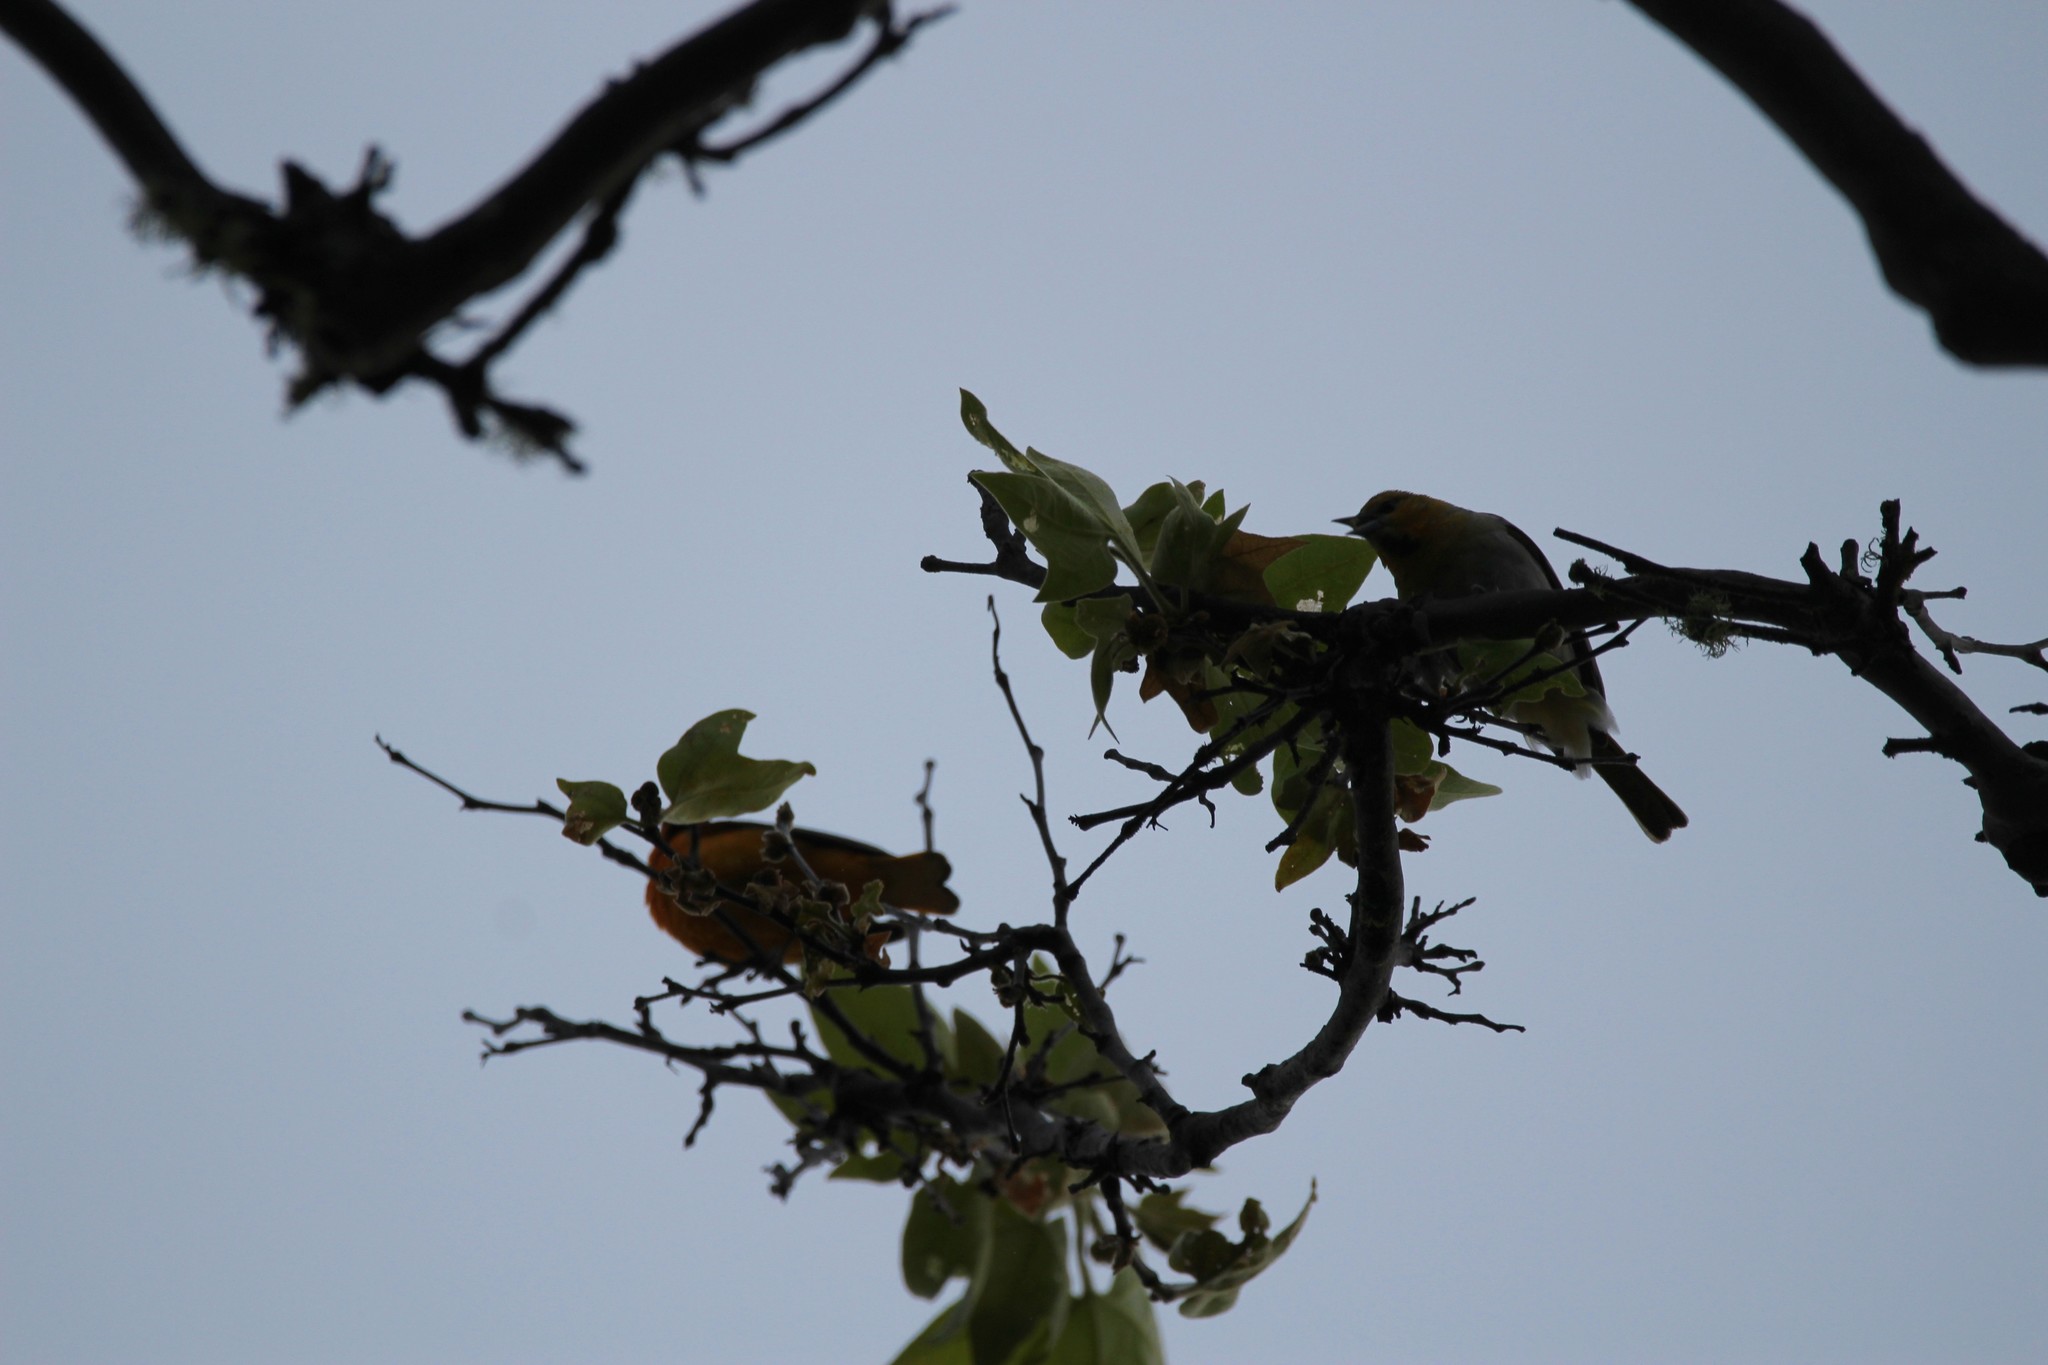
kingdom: Animalia
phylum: Chordata
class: Aves
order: Passeriformes
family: Icteridae
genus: Icterus
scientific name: Icterus bullockii
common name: Bullock's oriole
